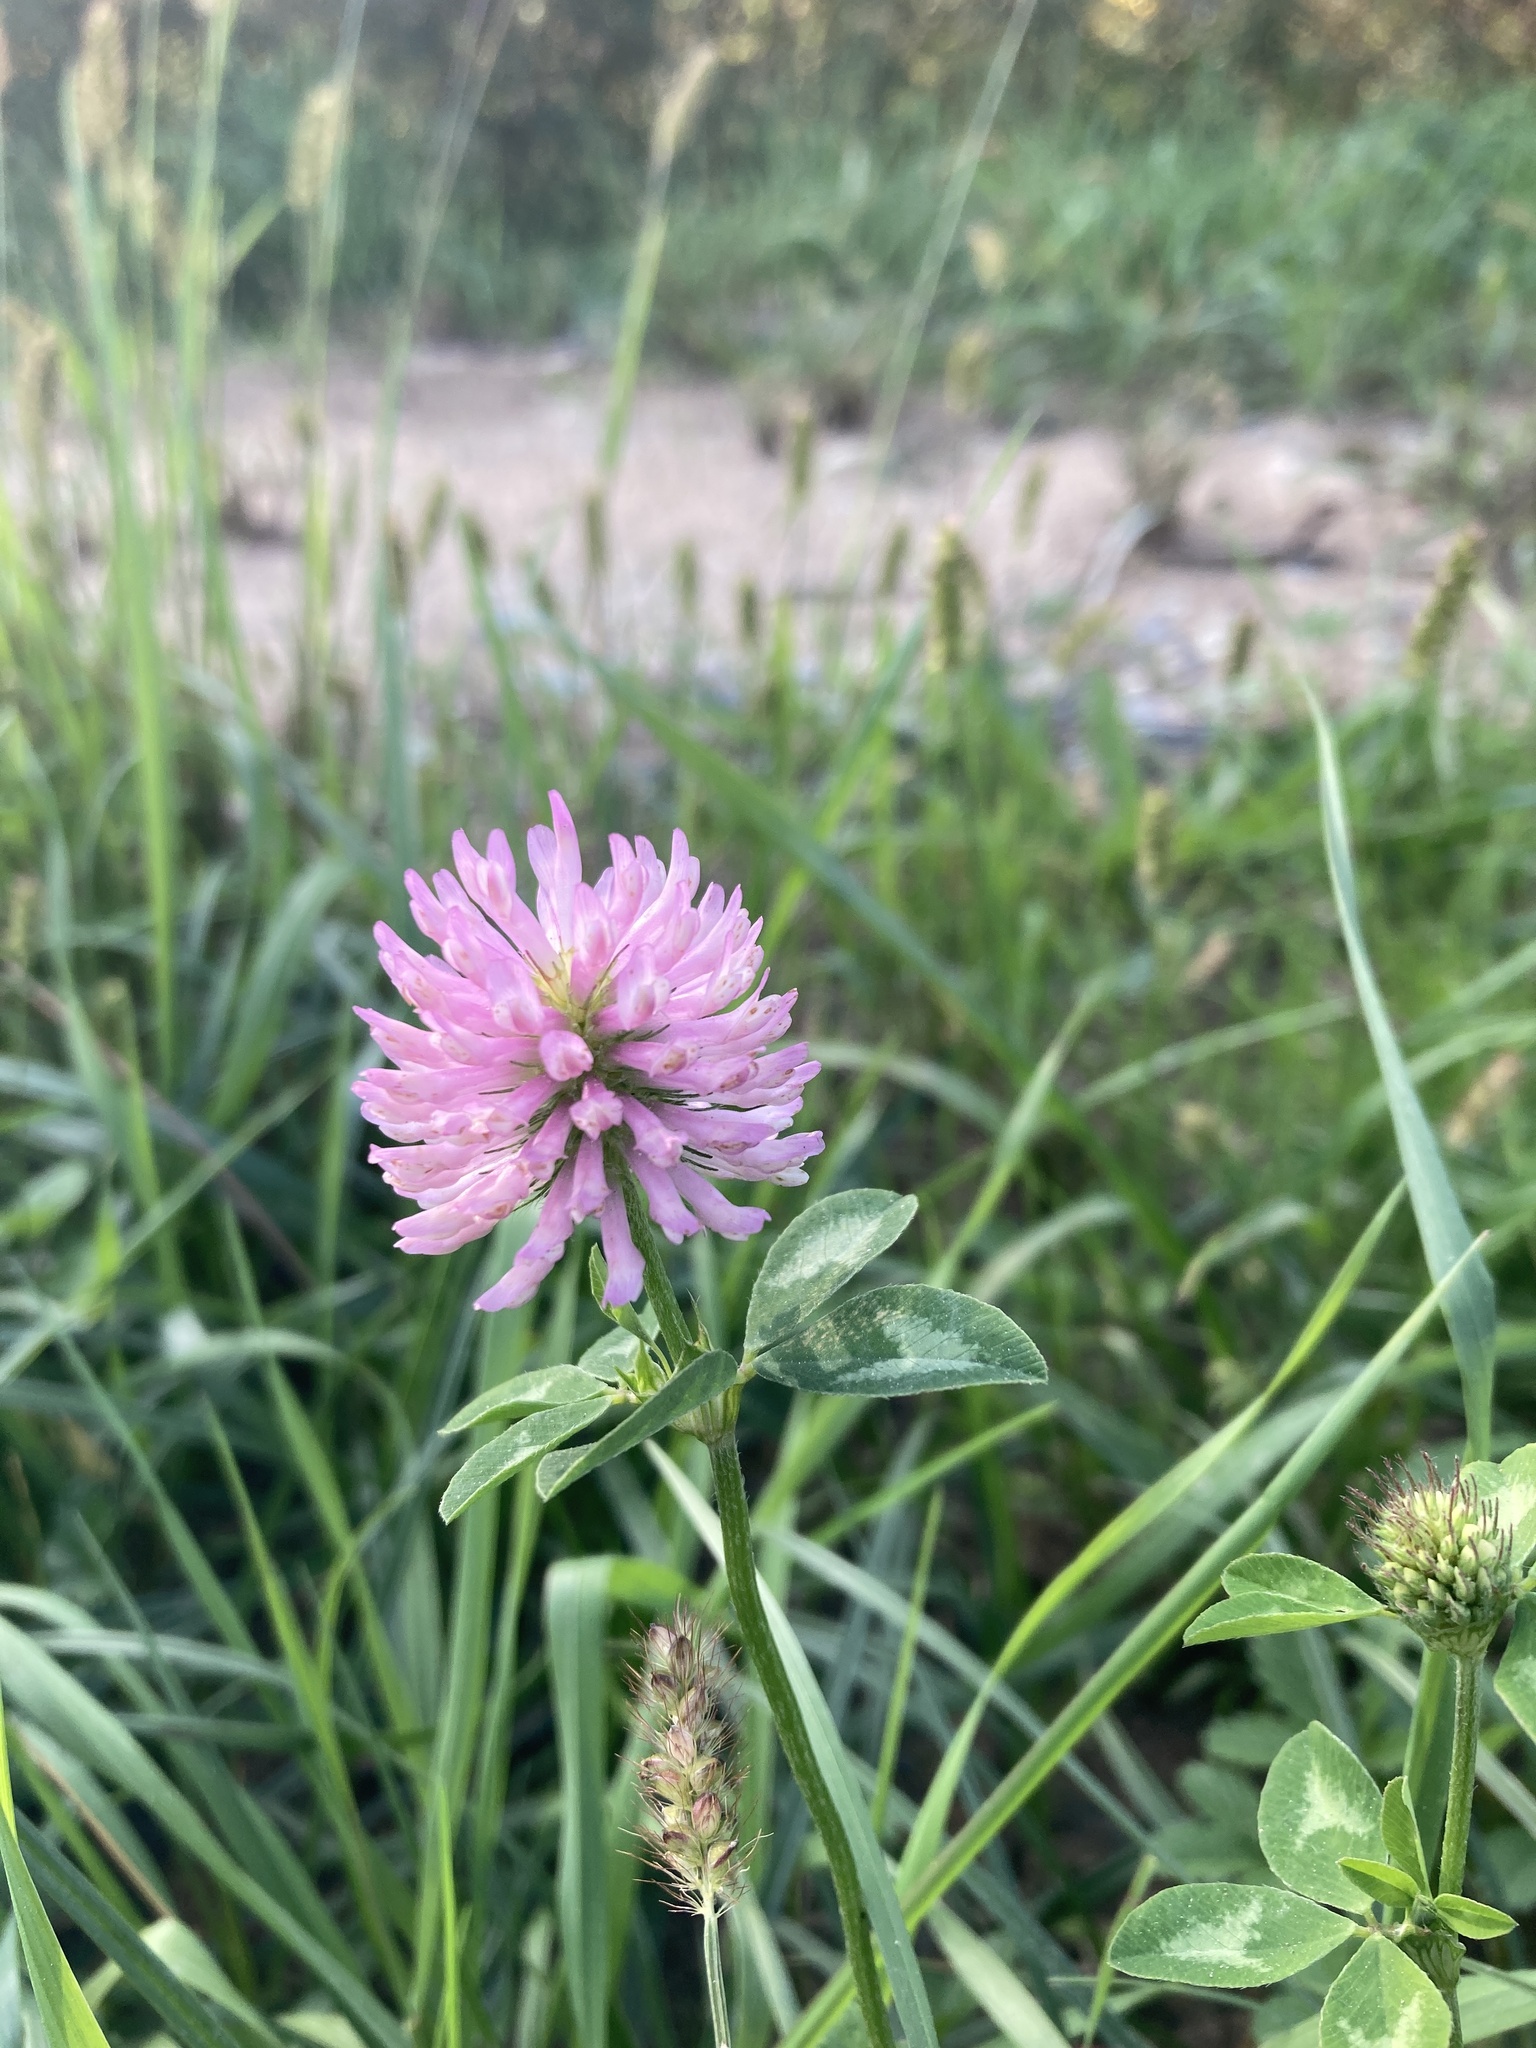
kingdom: Plantae
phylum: Tracheophyta
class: Magnoliopsida
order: Fabales
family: Fabaceae
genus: Trifolium
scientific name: Trifolium pratense
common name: Red clover
